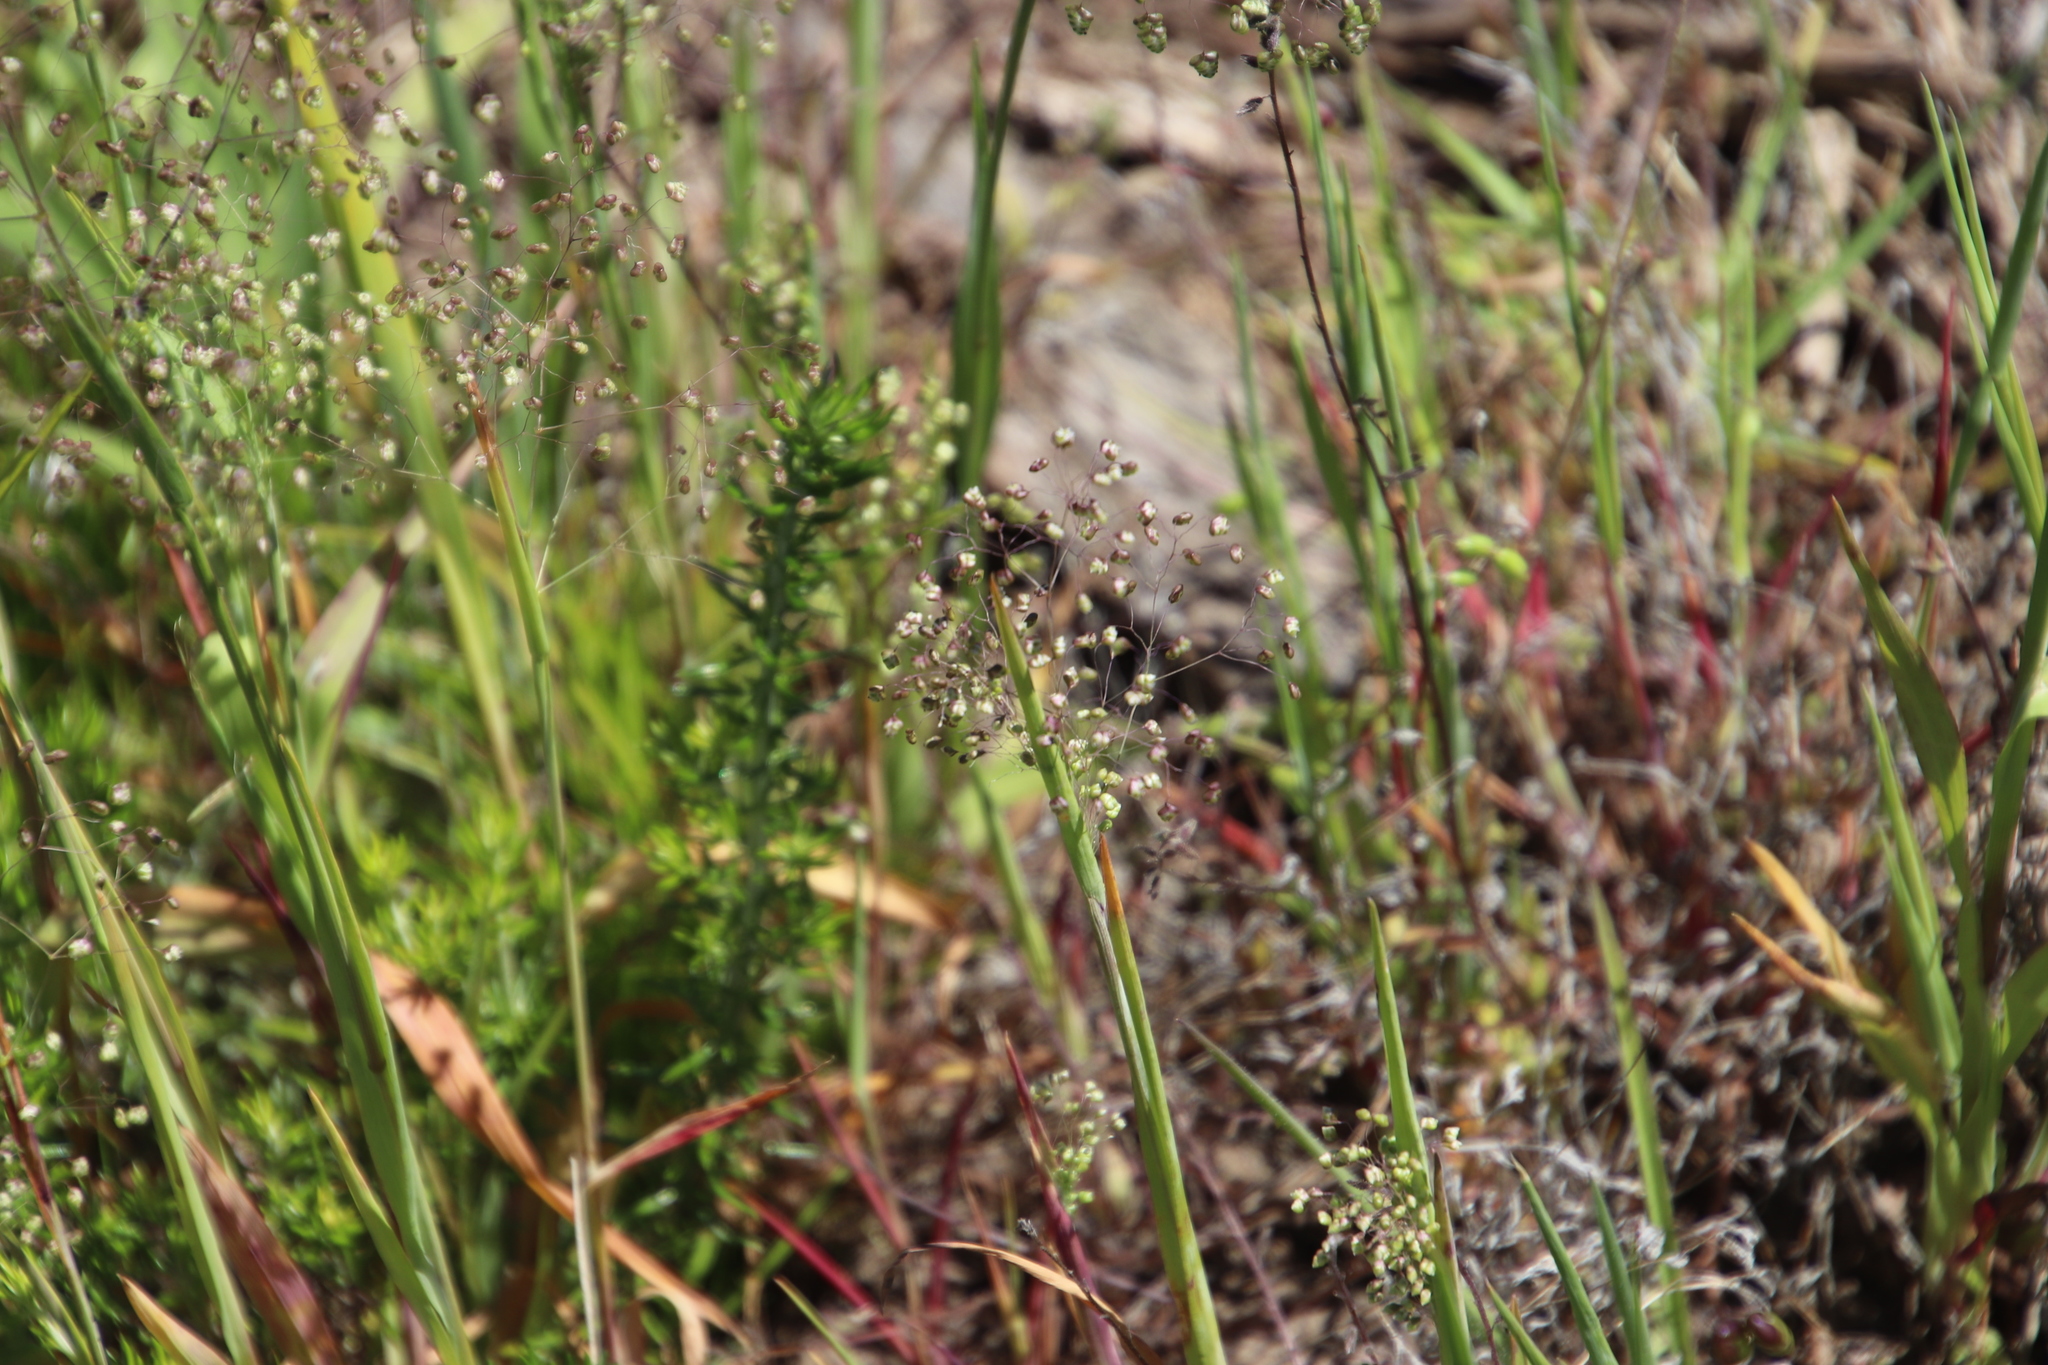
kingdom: Plantae
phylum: Tracheophyta
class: Liliopsida
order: Poales
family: Poaceae
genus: Briza
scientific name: Briza minor
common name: Lesser quaking-grass
